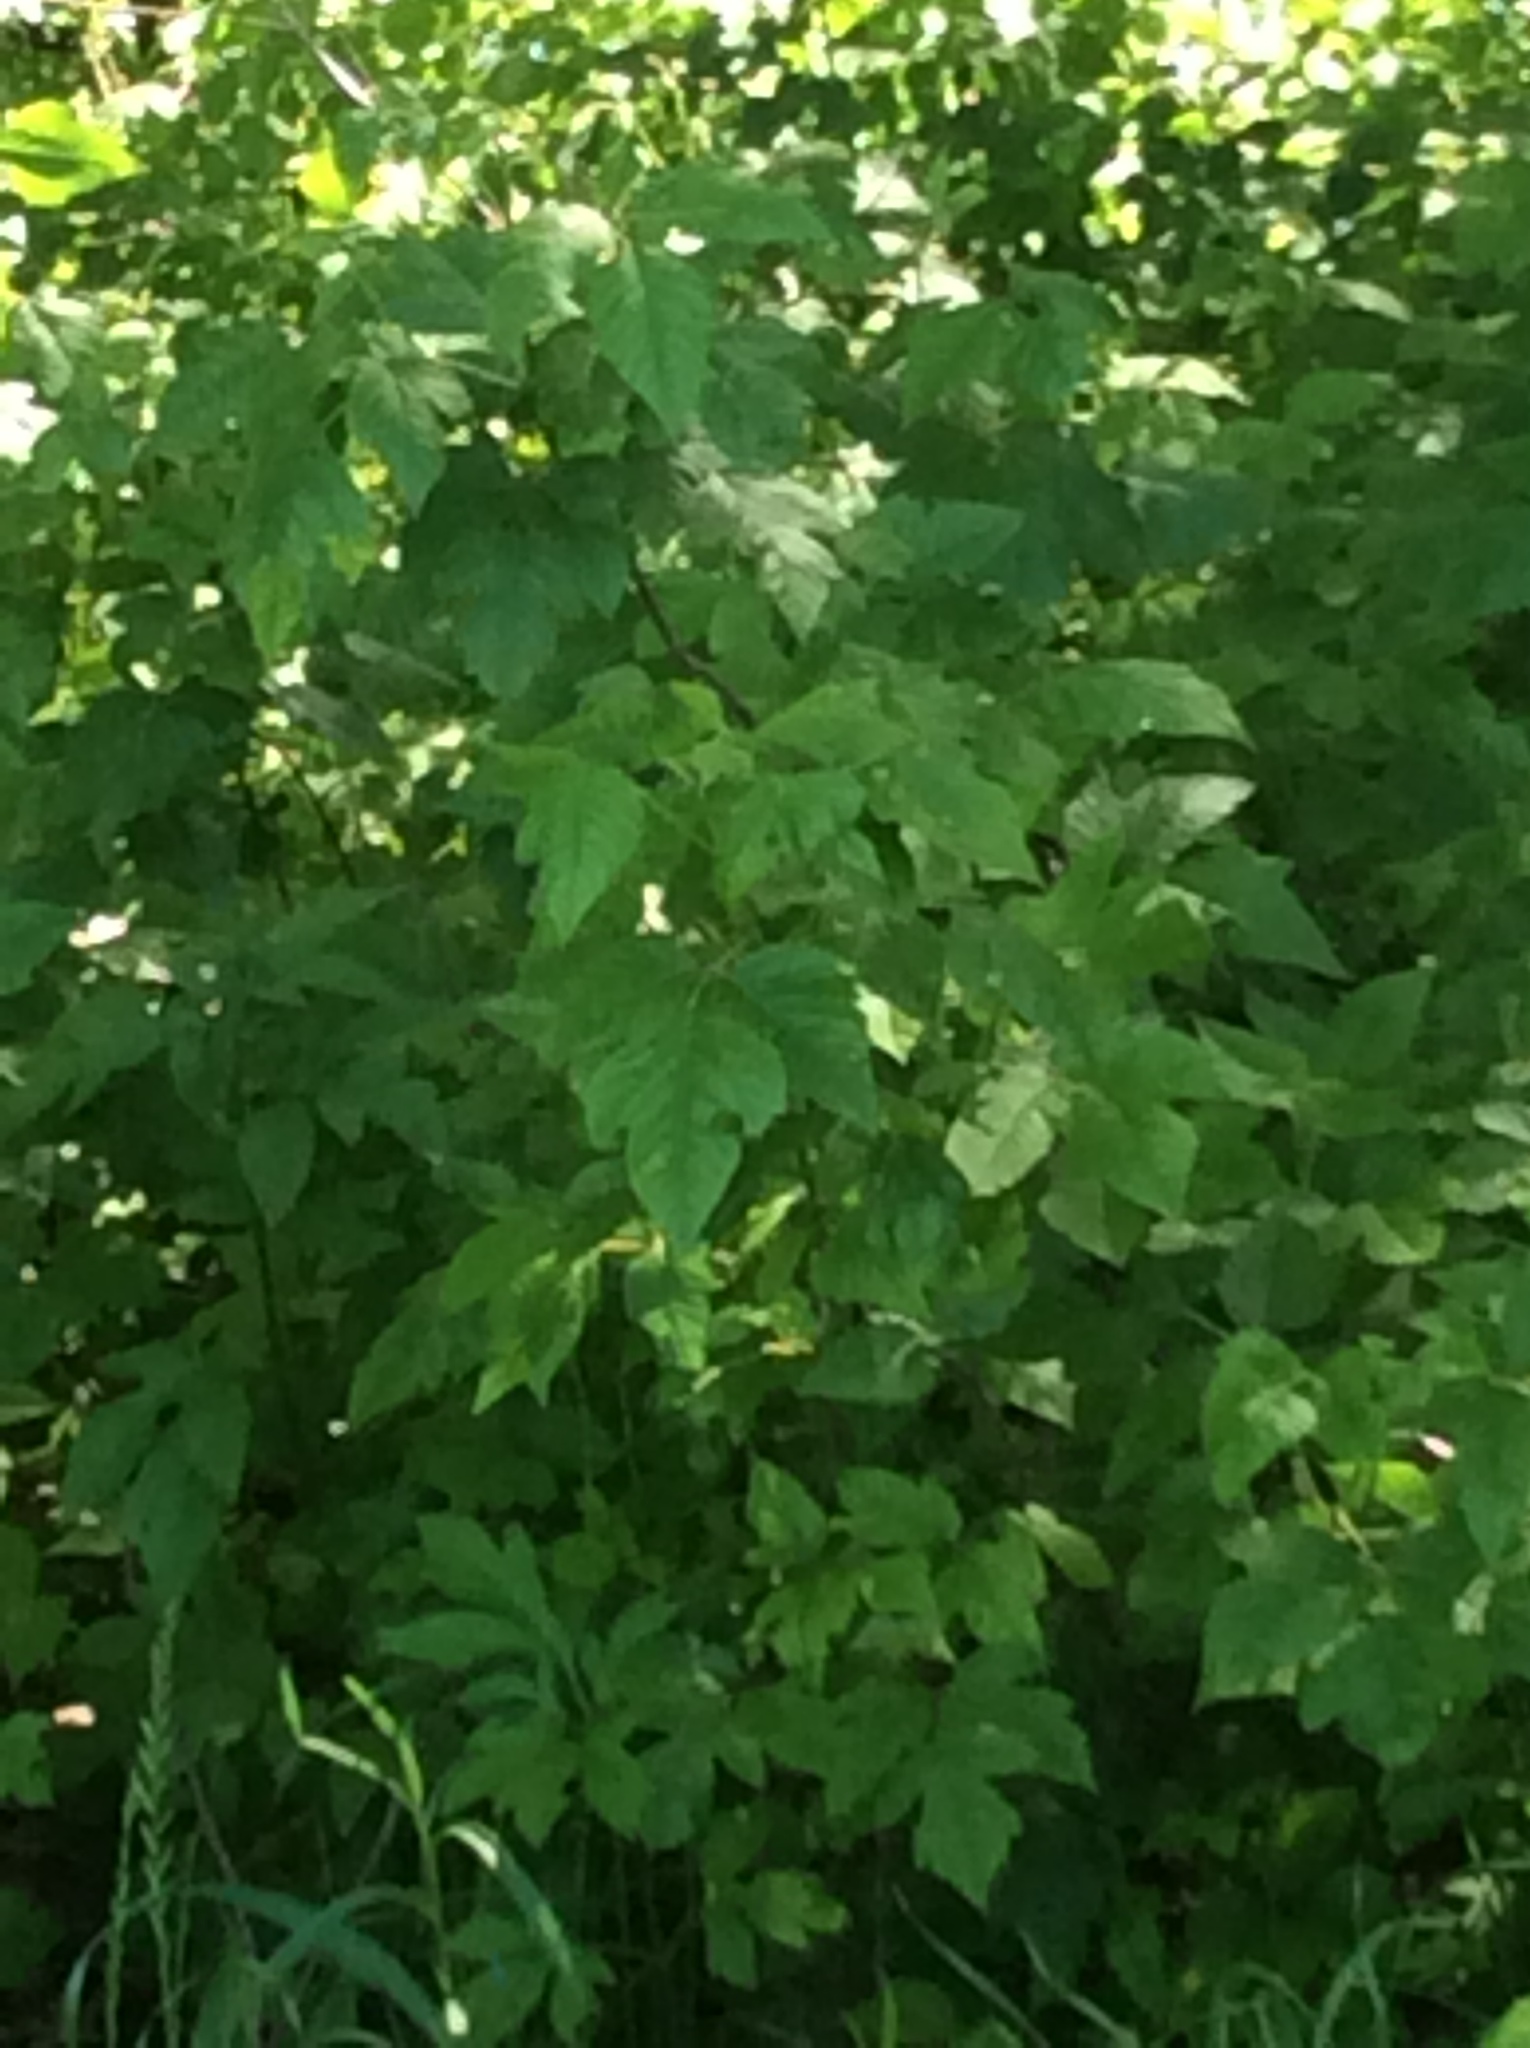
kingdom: Plantae
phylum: Tracheophyta
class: Magnoliopsida
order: Sapindales
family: Anacardiaceae
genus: Toxicodendron
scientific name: Toxicodendron radicans
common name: Poison ivy
